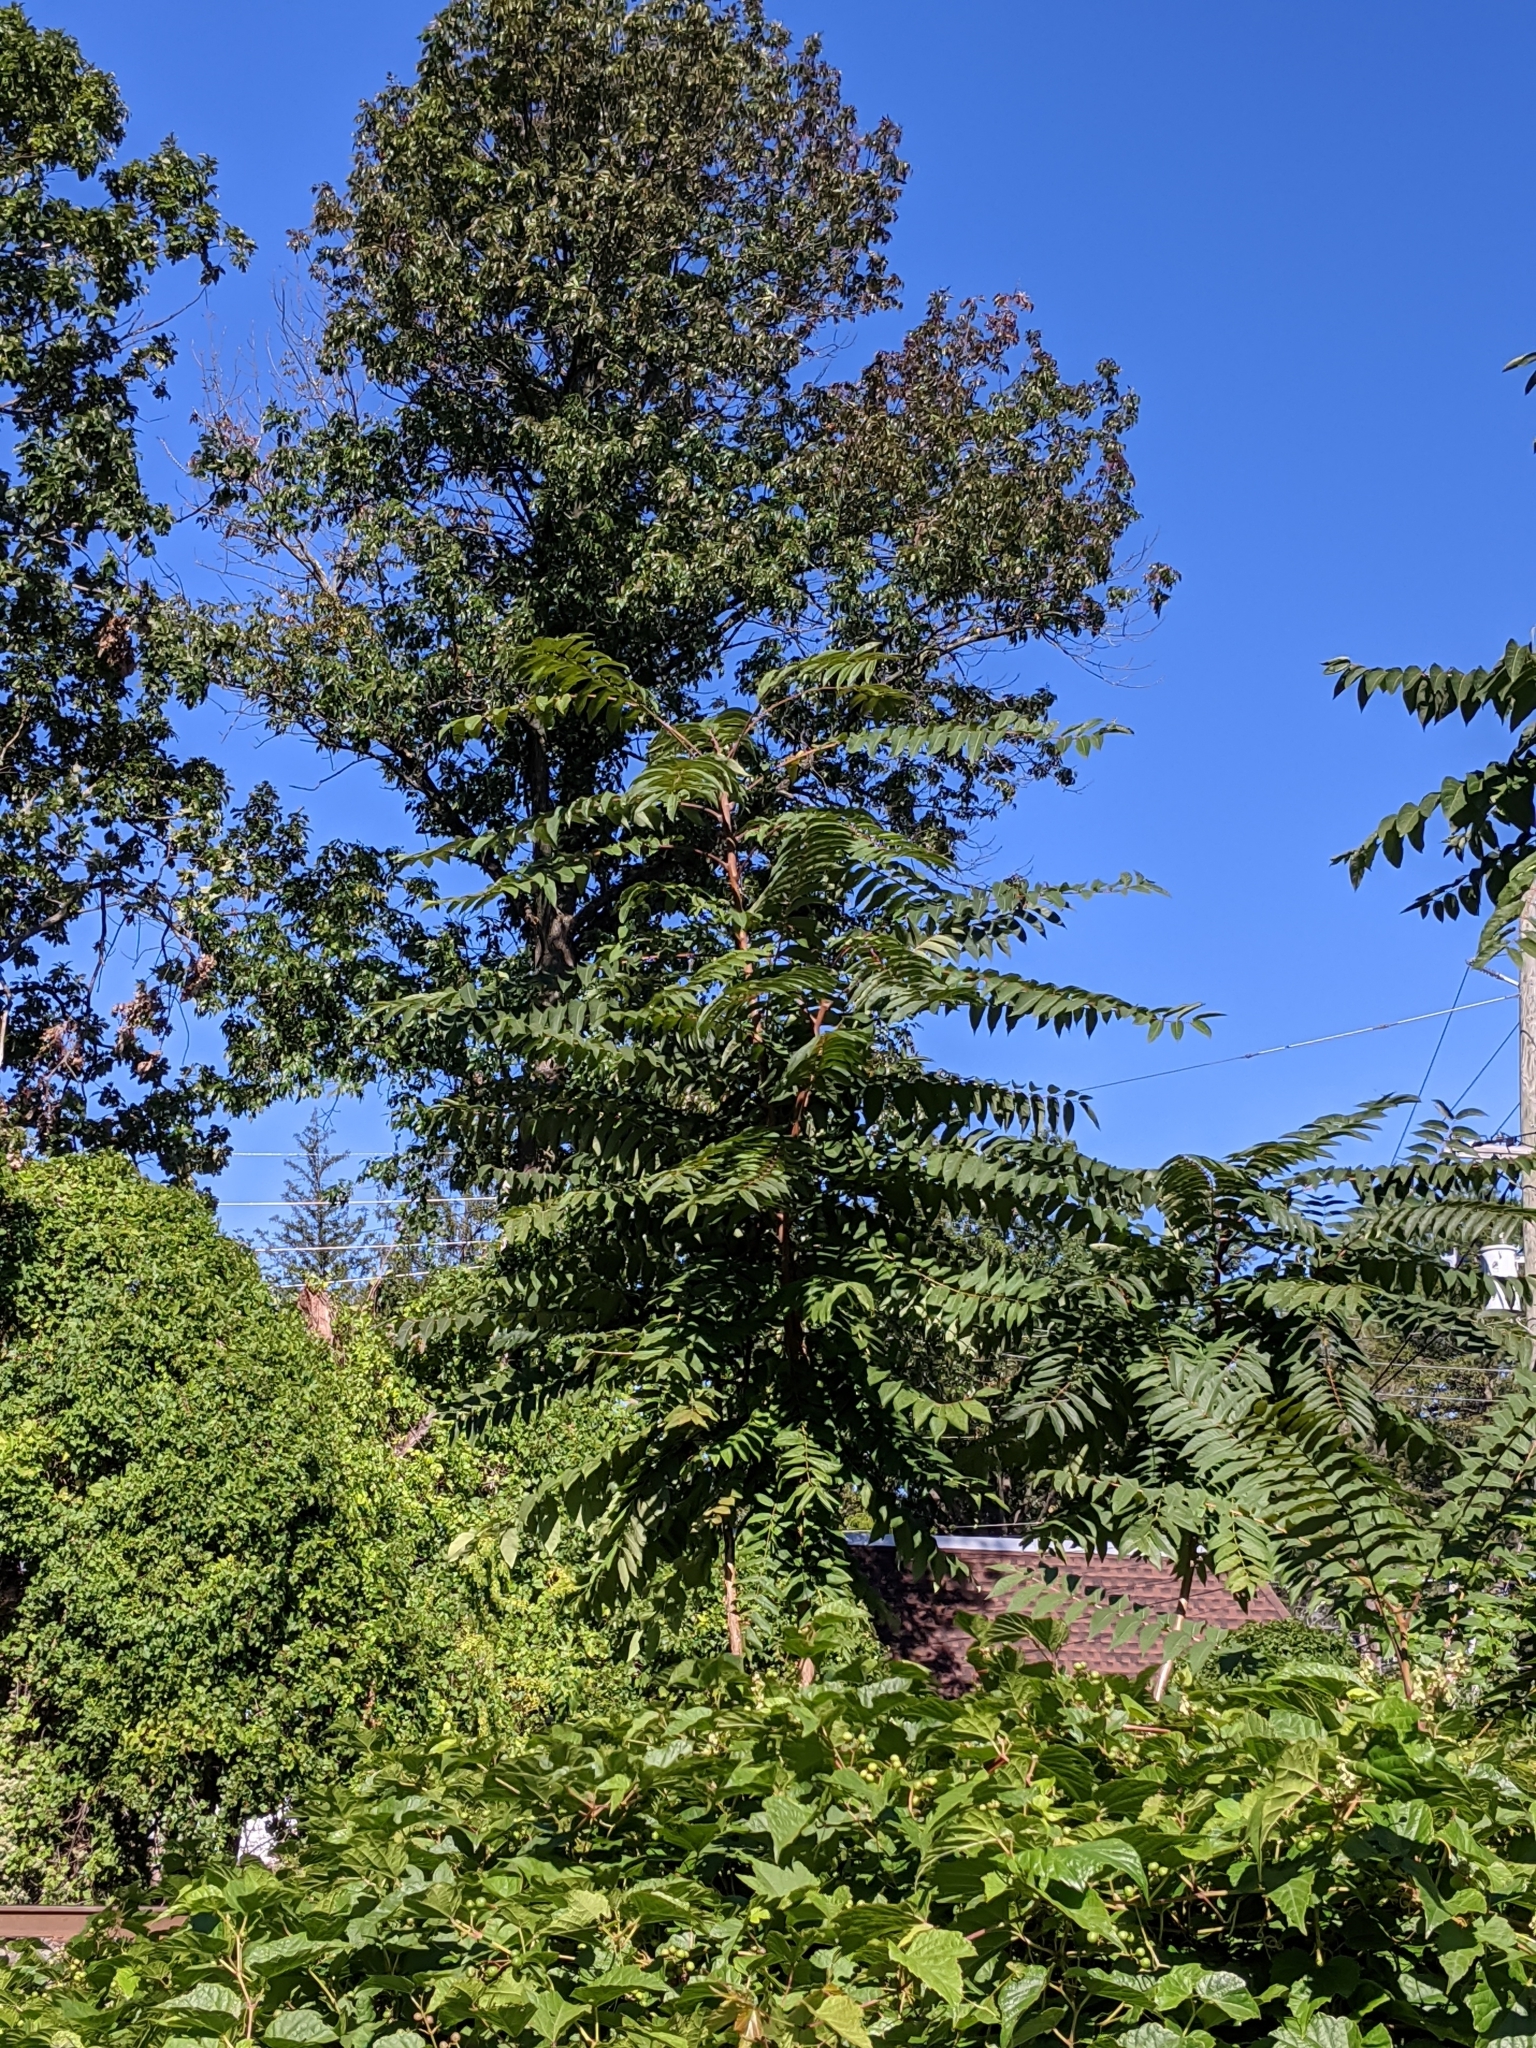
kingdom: Plantae
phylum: Tracheophyta
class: Magnoliopsida
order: Sapindales
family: Simaroubaceae
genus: Ailanthus
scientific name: Ailanthus altissima
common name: Tree-of-heaven
